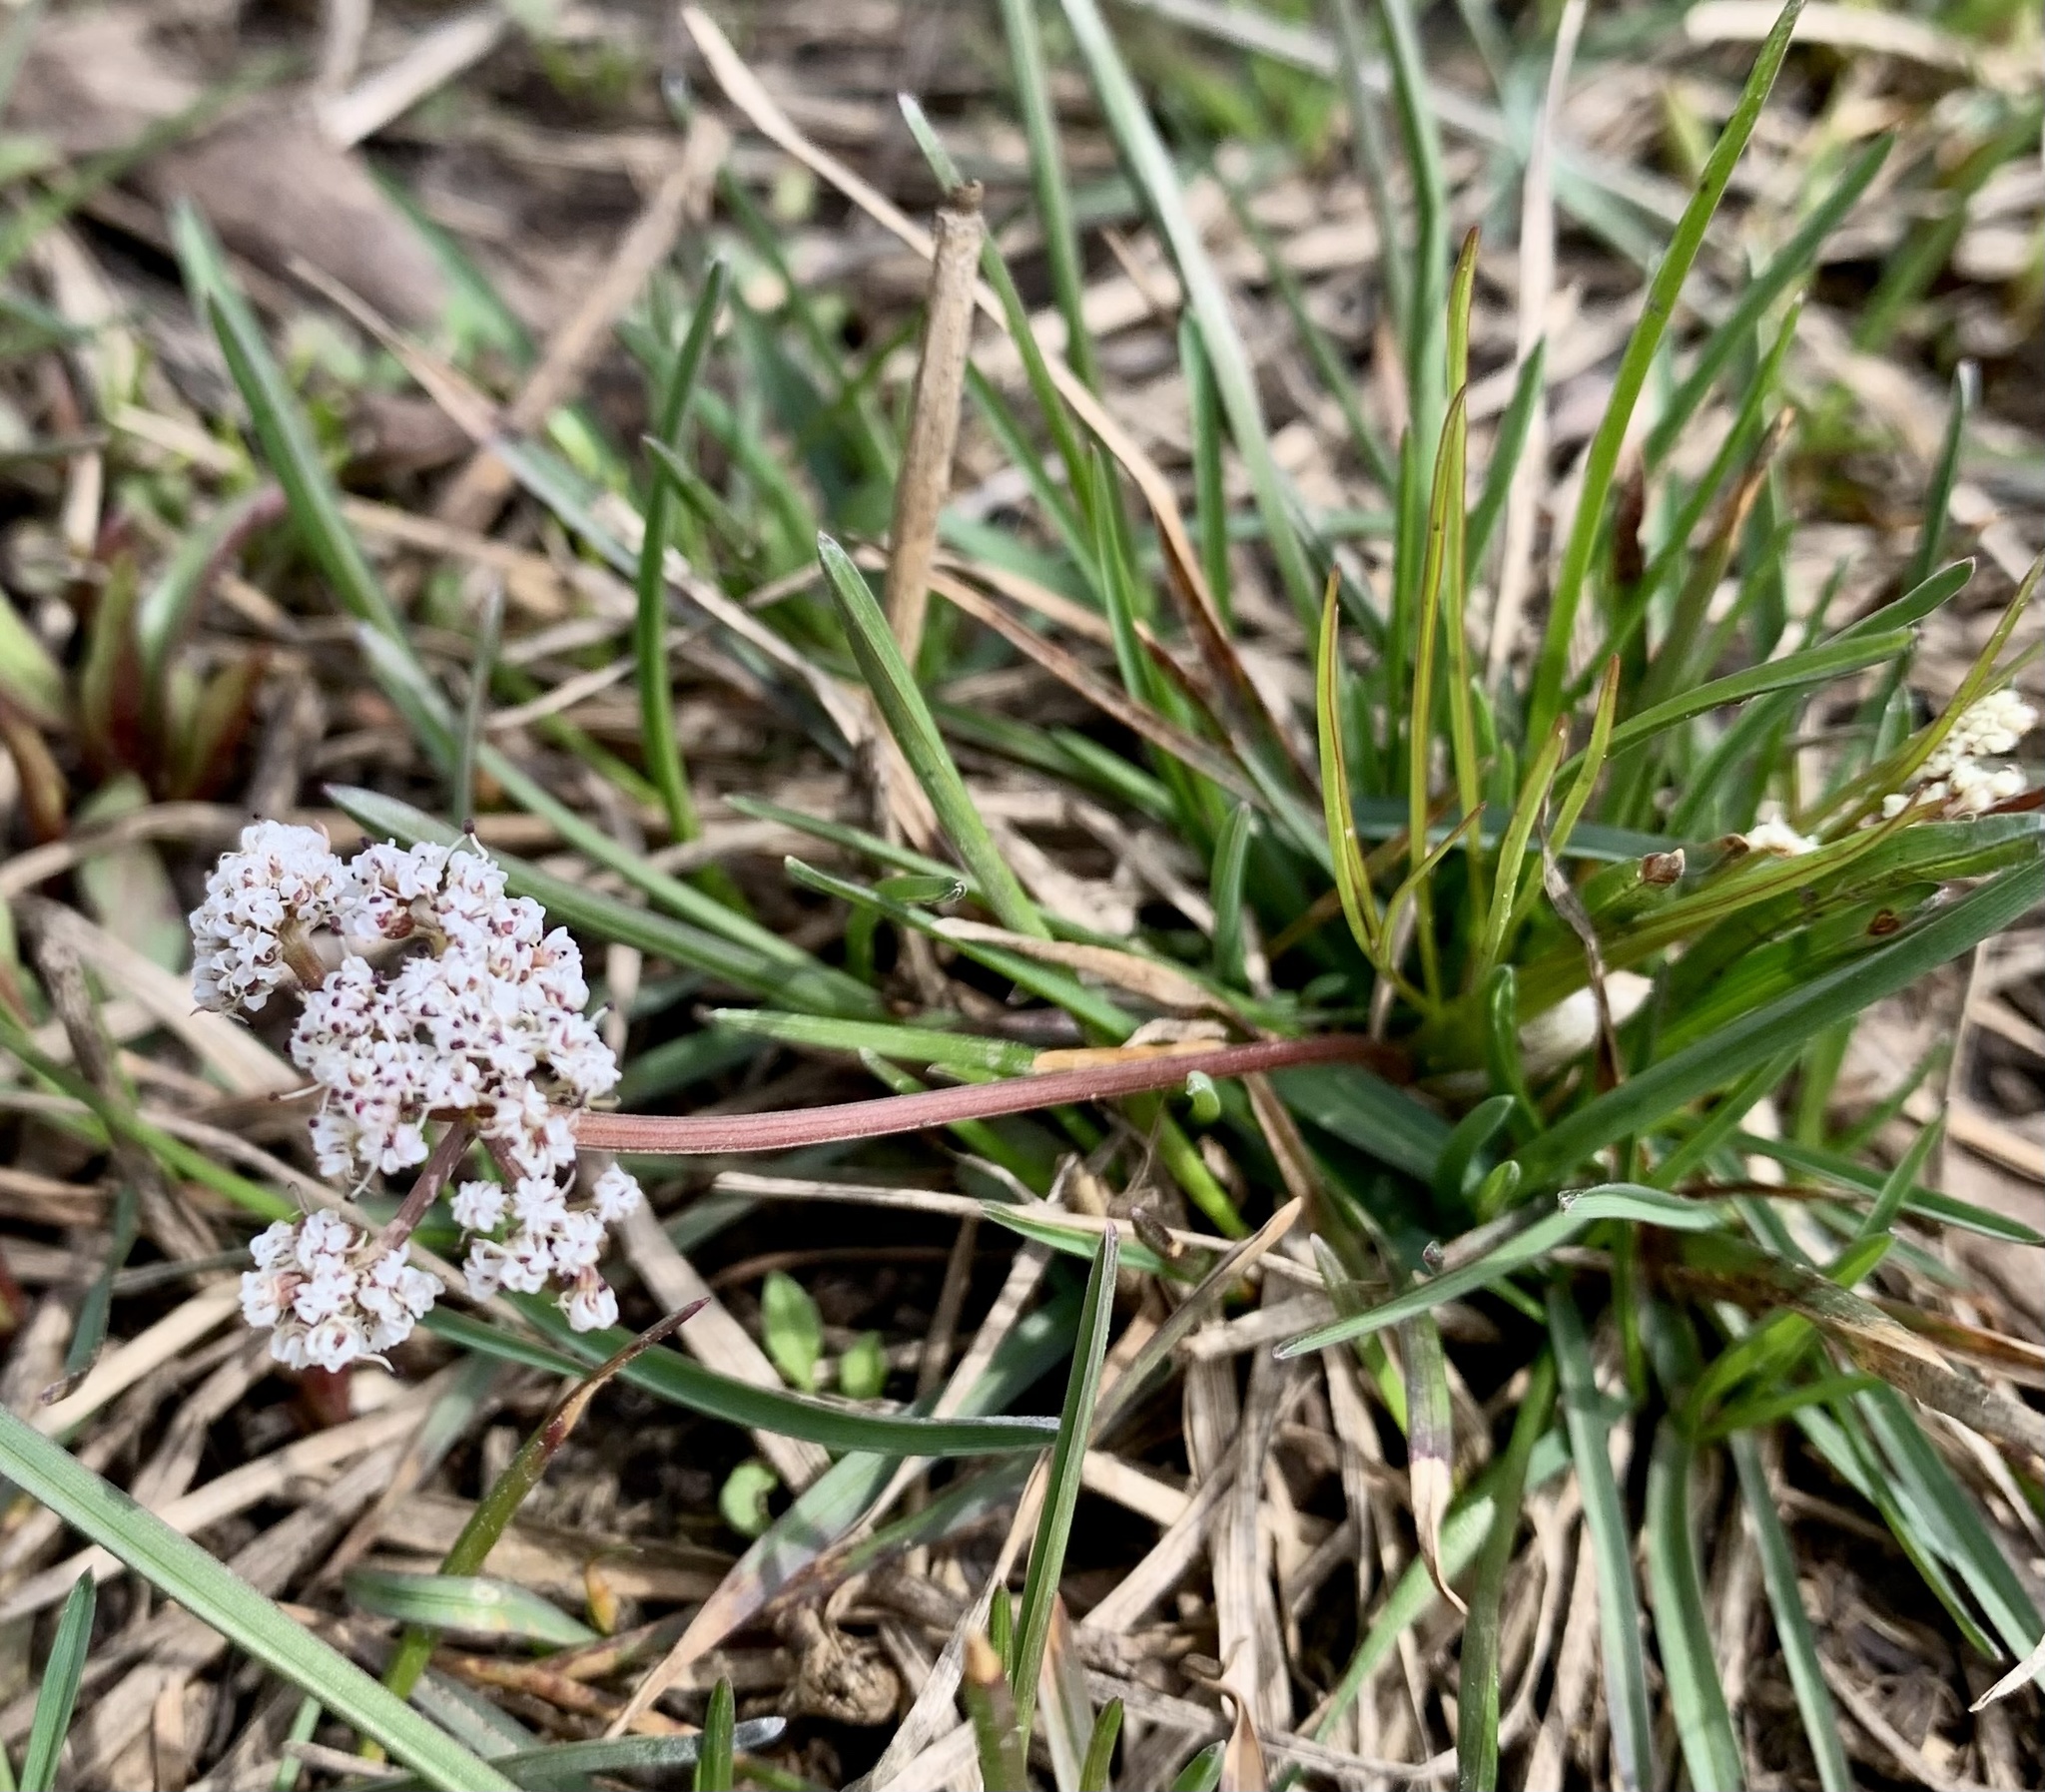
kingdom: Plantae
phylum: Tracheophyta
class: Magnoliopsida
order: Apiales
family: Apiaceae
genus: Lomatium
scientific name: Lomatium linearifolium
